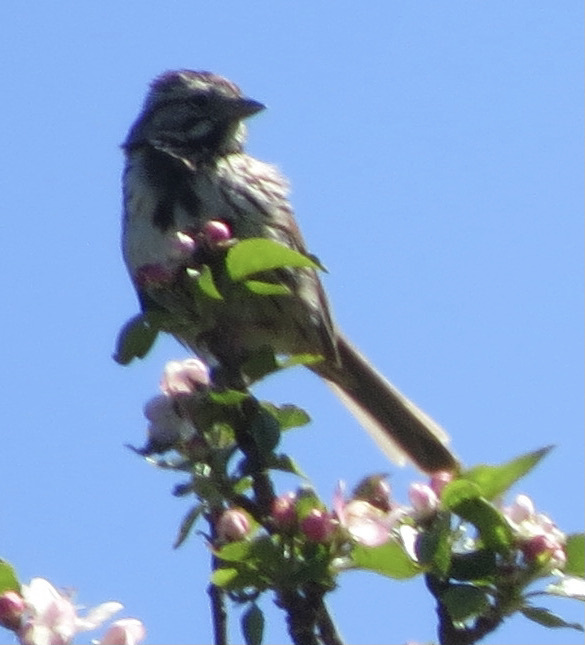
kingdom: Animalia
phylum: Chordata
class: Aves
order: Passeriformes
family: Passerellidae
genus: Melospiza
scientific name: Melospiza melodia
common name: Song sparrow
